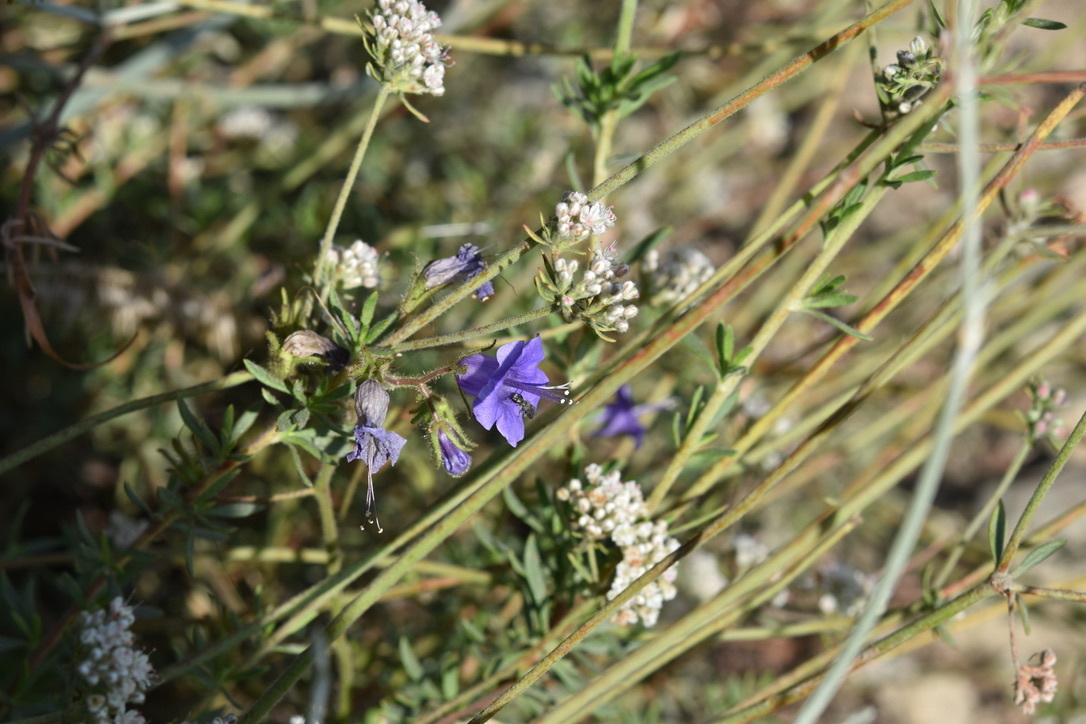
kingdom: Plantae
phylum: Tracheophyta
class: Magnoliopsida
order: Boraginales
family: Hydrophyllaceae
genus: Phacelia
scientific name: Phacelia minor
